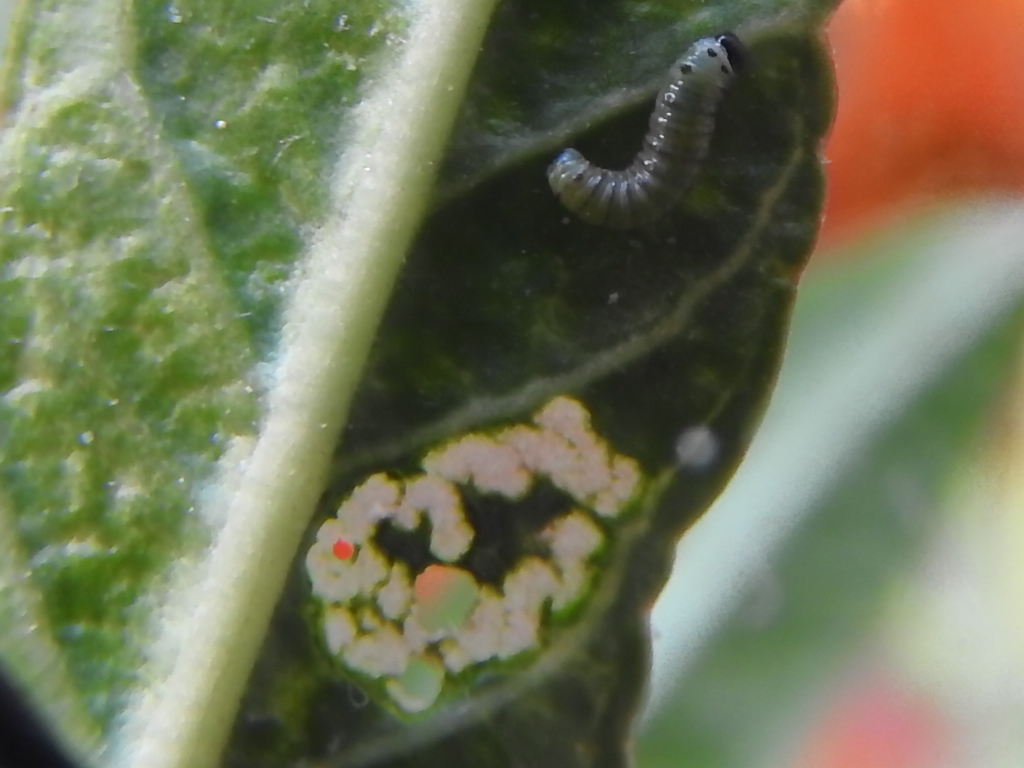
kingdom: Animalia
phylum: Arthropoda
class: Insecta
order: Lepidoptera
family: Nymphalidae
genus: Danaus
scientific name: Danaus plexippus
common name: Monarch
